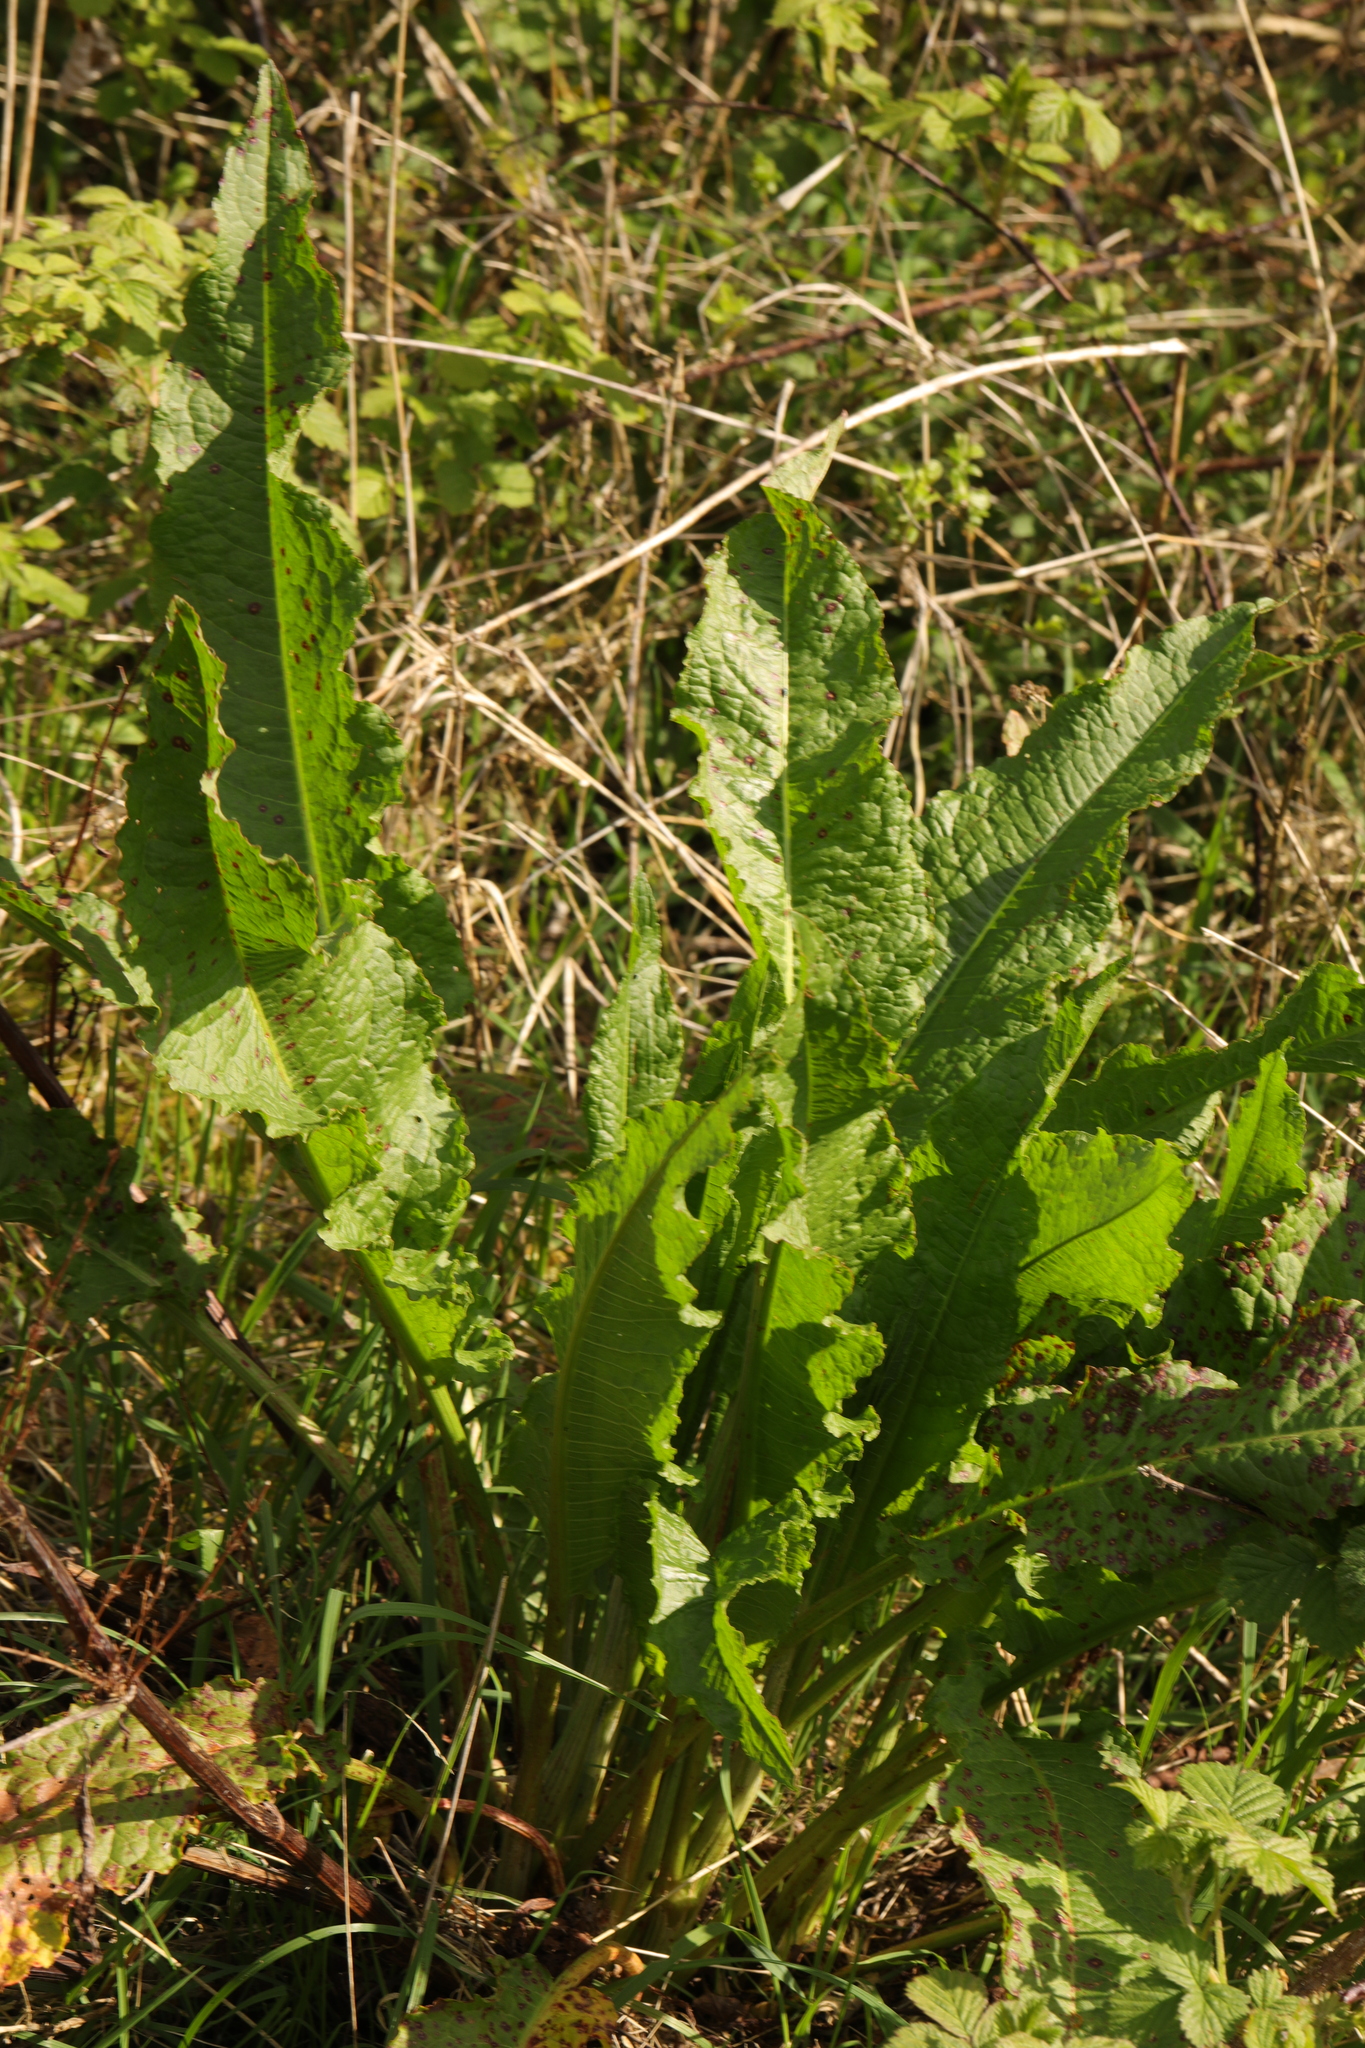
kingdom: Plantae
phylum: Tracheophyta
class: Magnoliopsida
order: Caryophyllales
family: Polygonaceae
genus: Rumex
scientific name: Rumex obtusifolius
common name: Bitter dock
